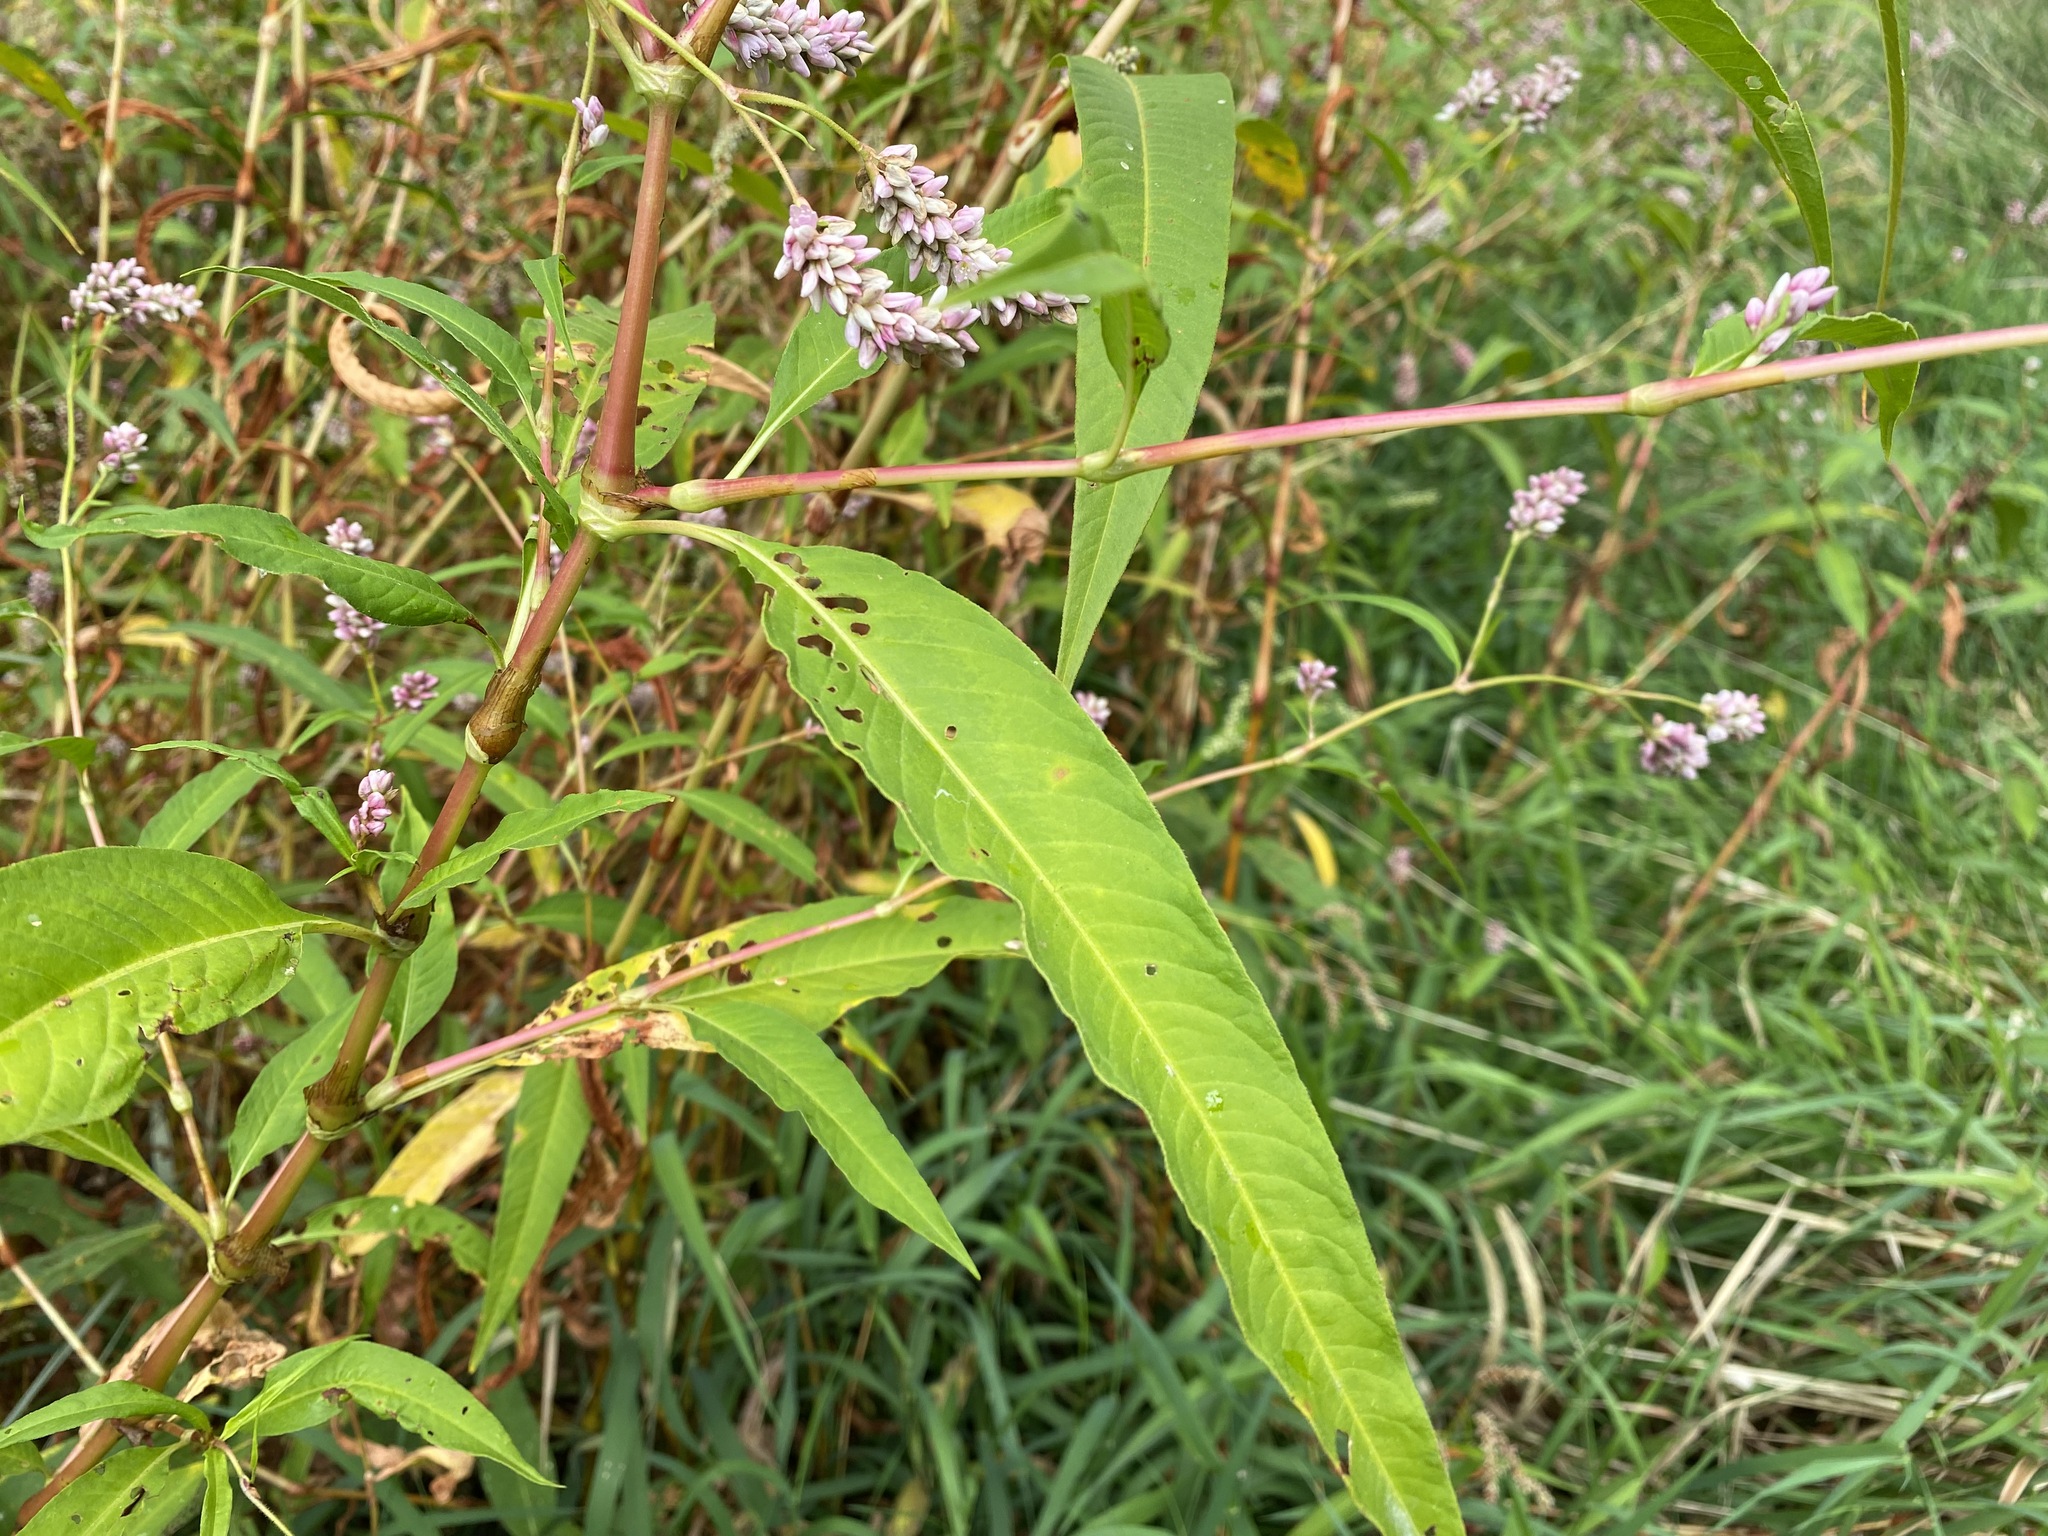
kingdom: Plantae
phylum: Tracheophyta
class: Magnoliopsida
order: Caryophyllales
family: Polygonaceae
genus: Persicaria
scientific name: Persicaria pensylvanica
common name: Pinkweed
